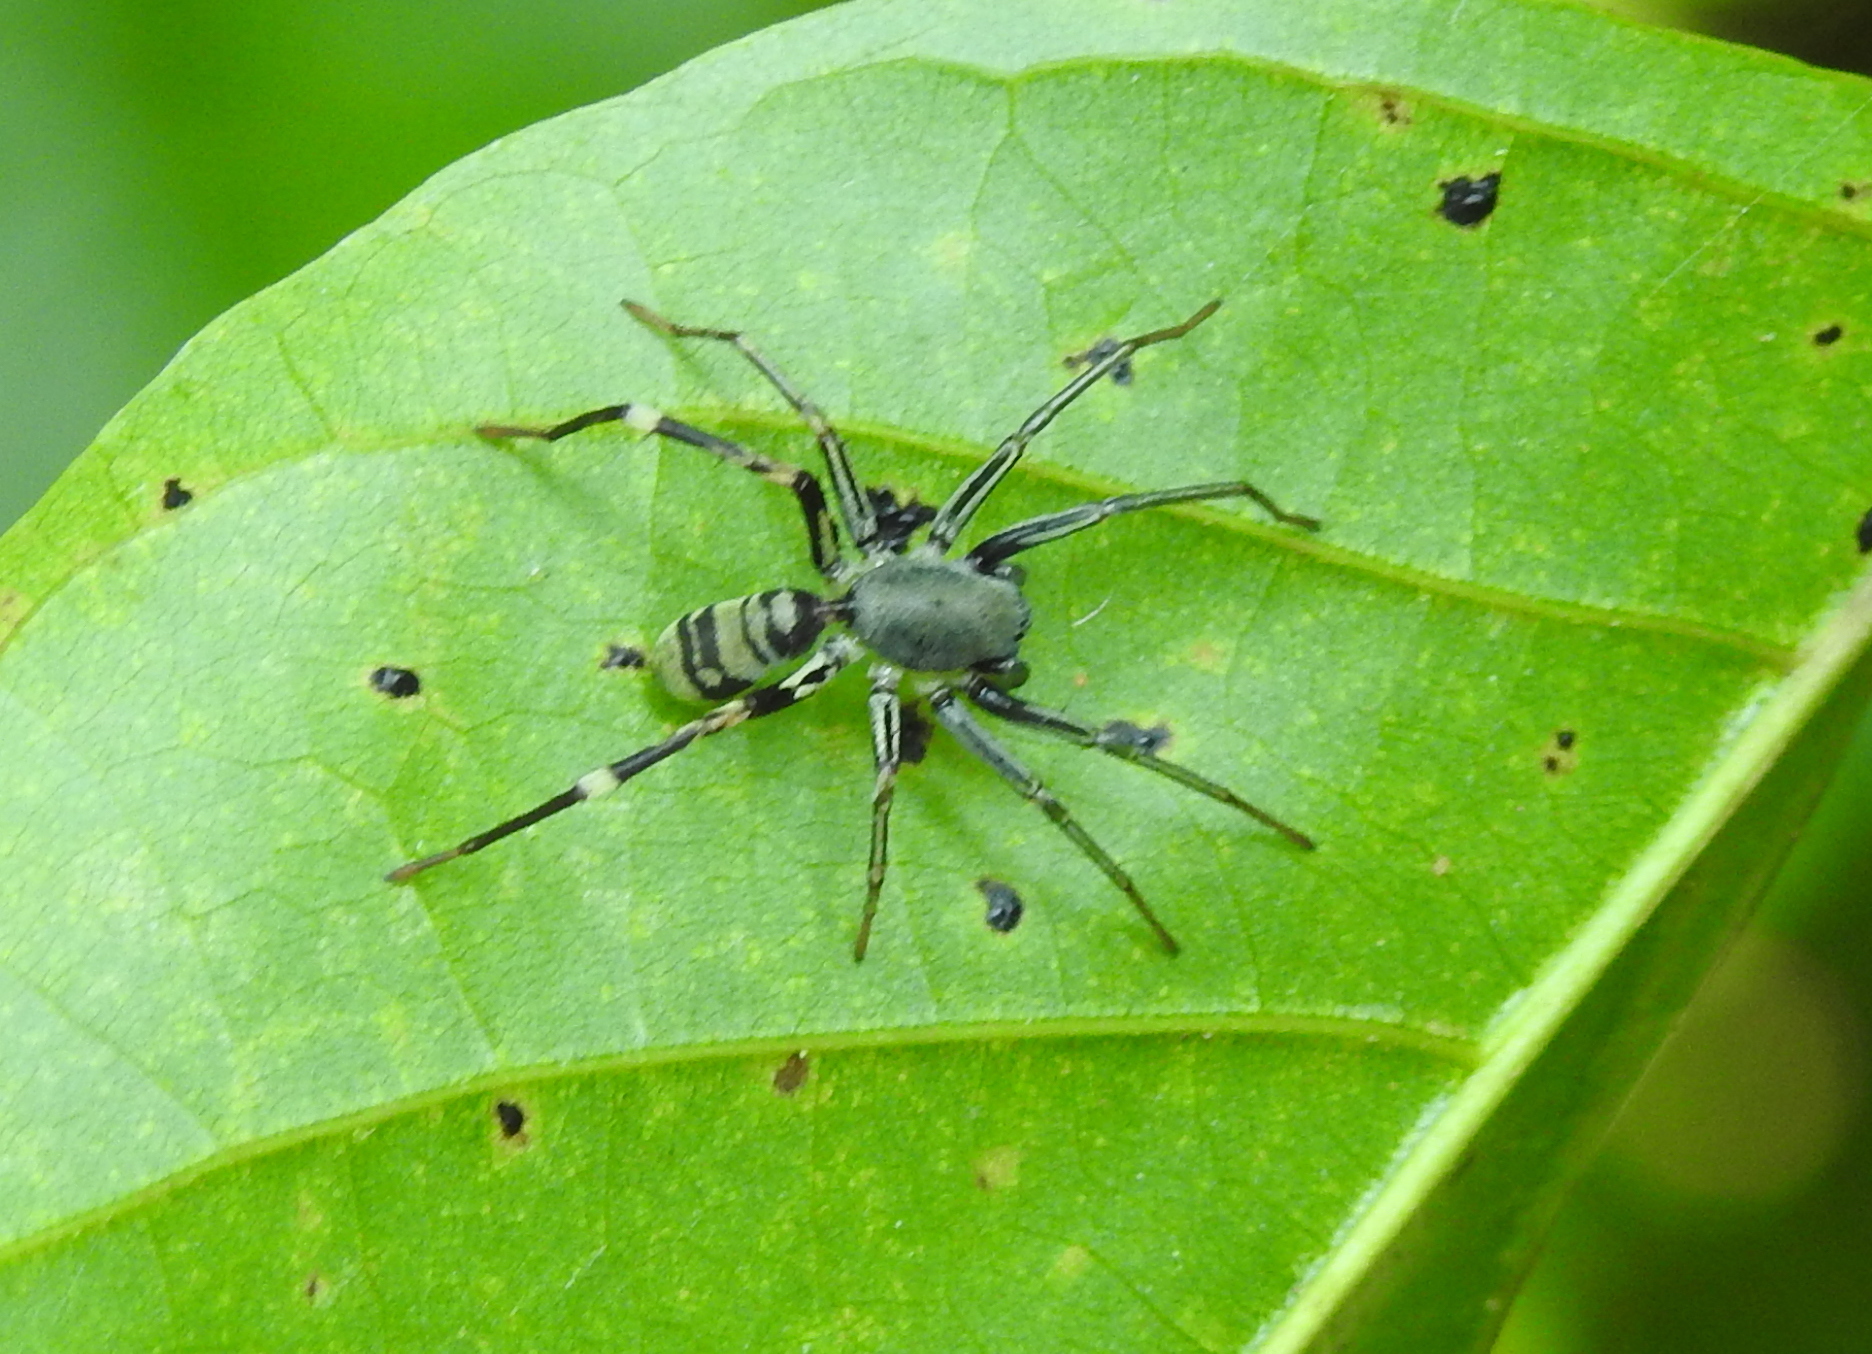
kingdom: Animalia
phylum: Arthropoda
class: Arachnida
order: Araneae
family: Corinnidae
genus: Corinnomma
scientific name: Corinnomma severum
